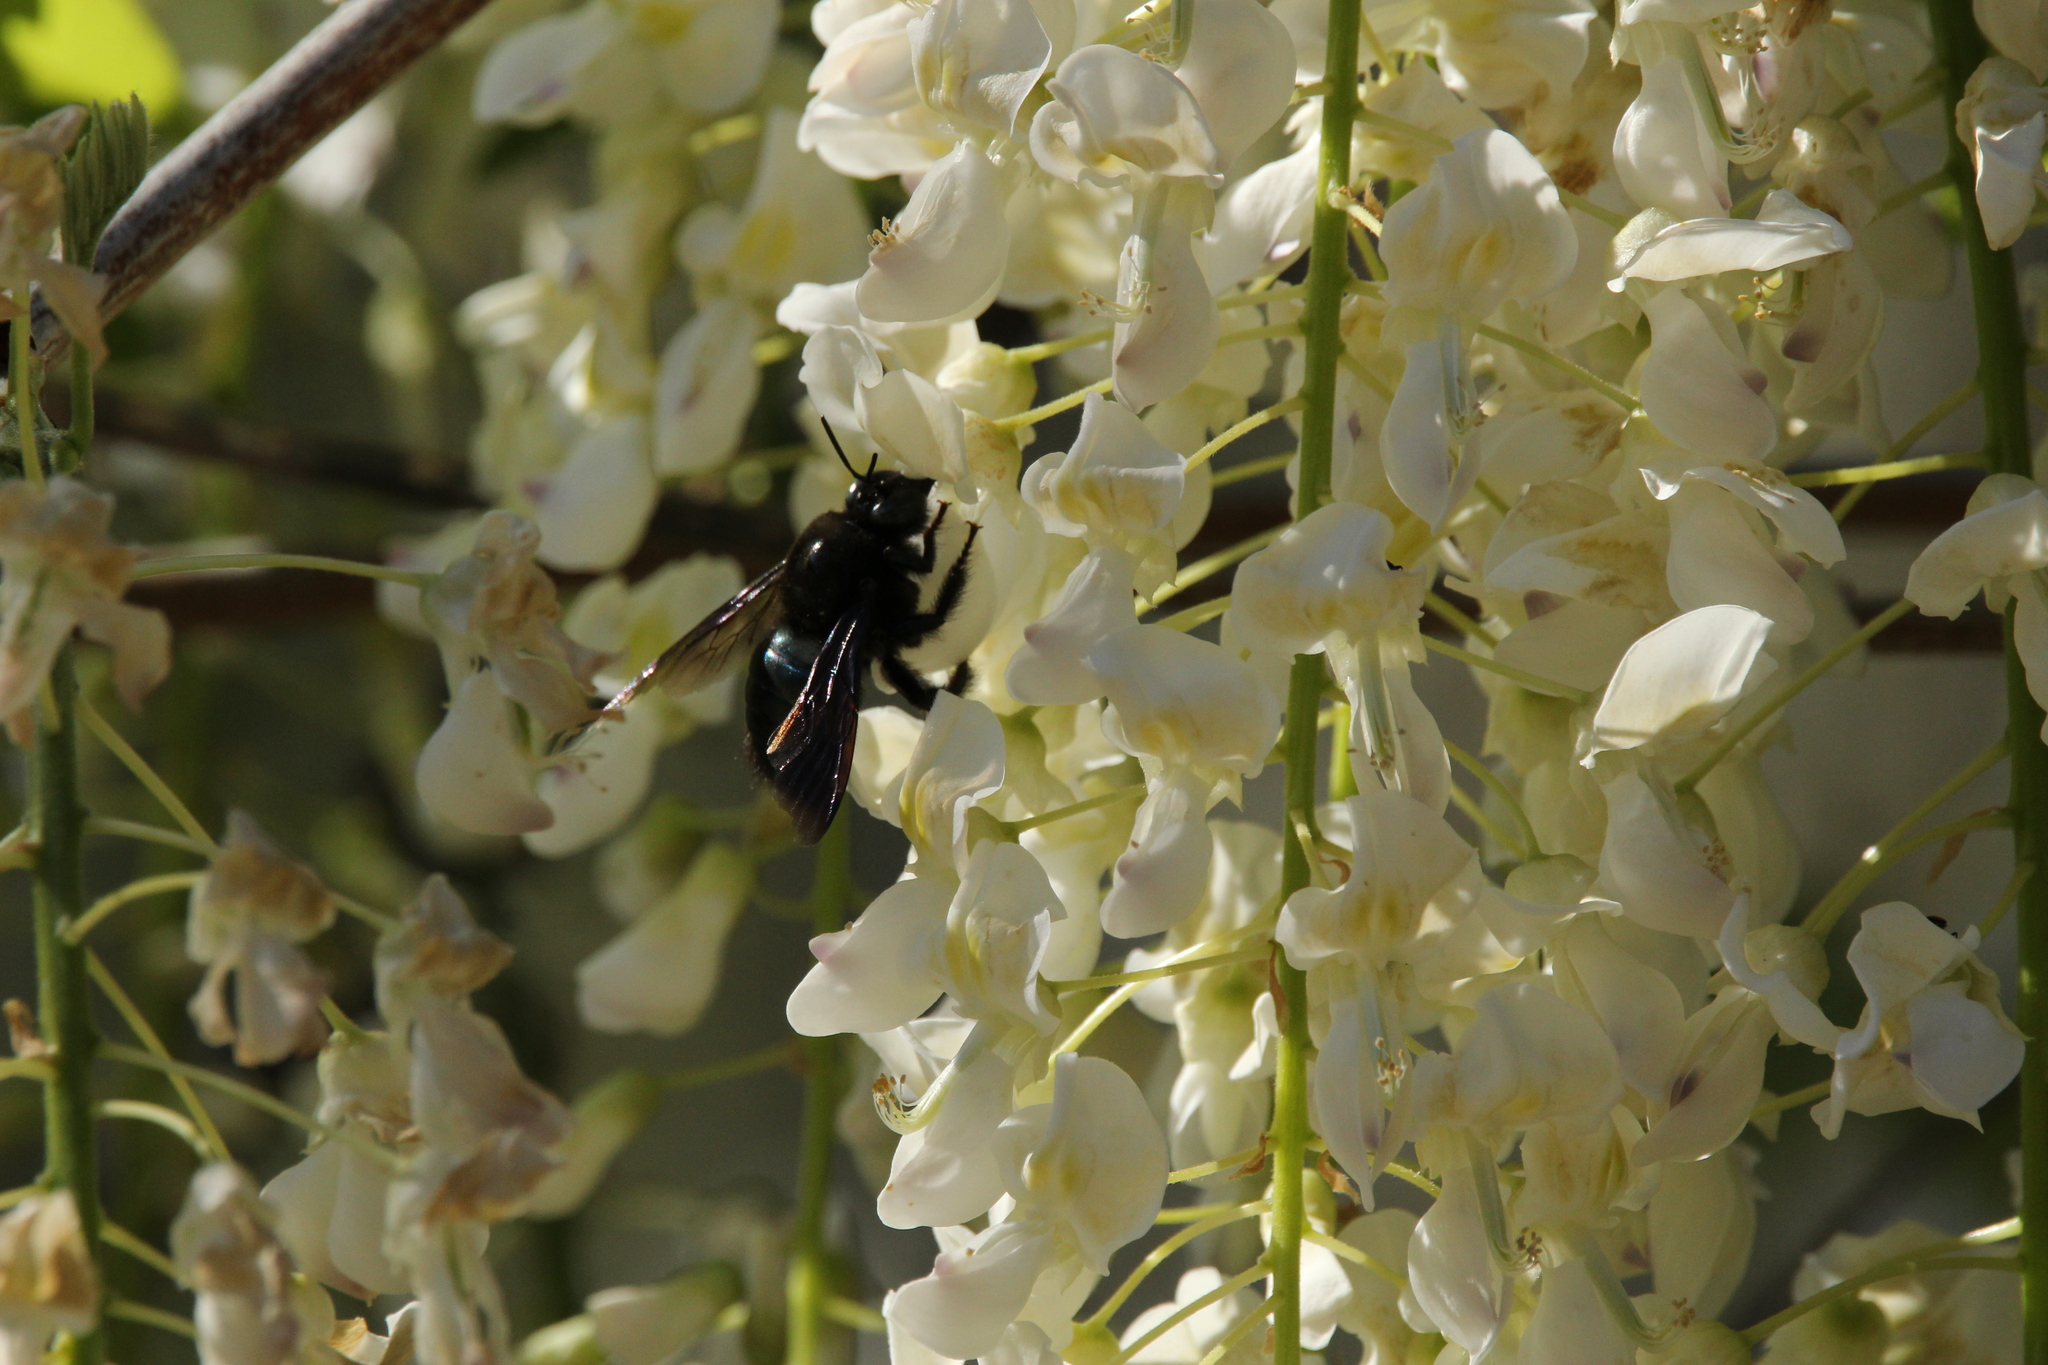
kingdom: Animalia
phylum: Arthropoda
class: Insecta
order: Hymenoptera
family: Apidae
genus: Xylocopa
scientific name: Xylocopa californica
